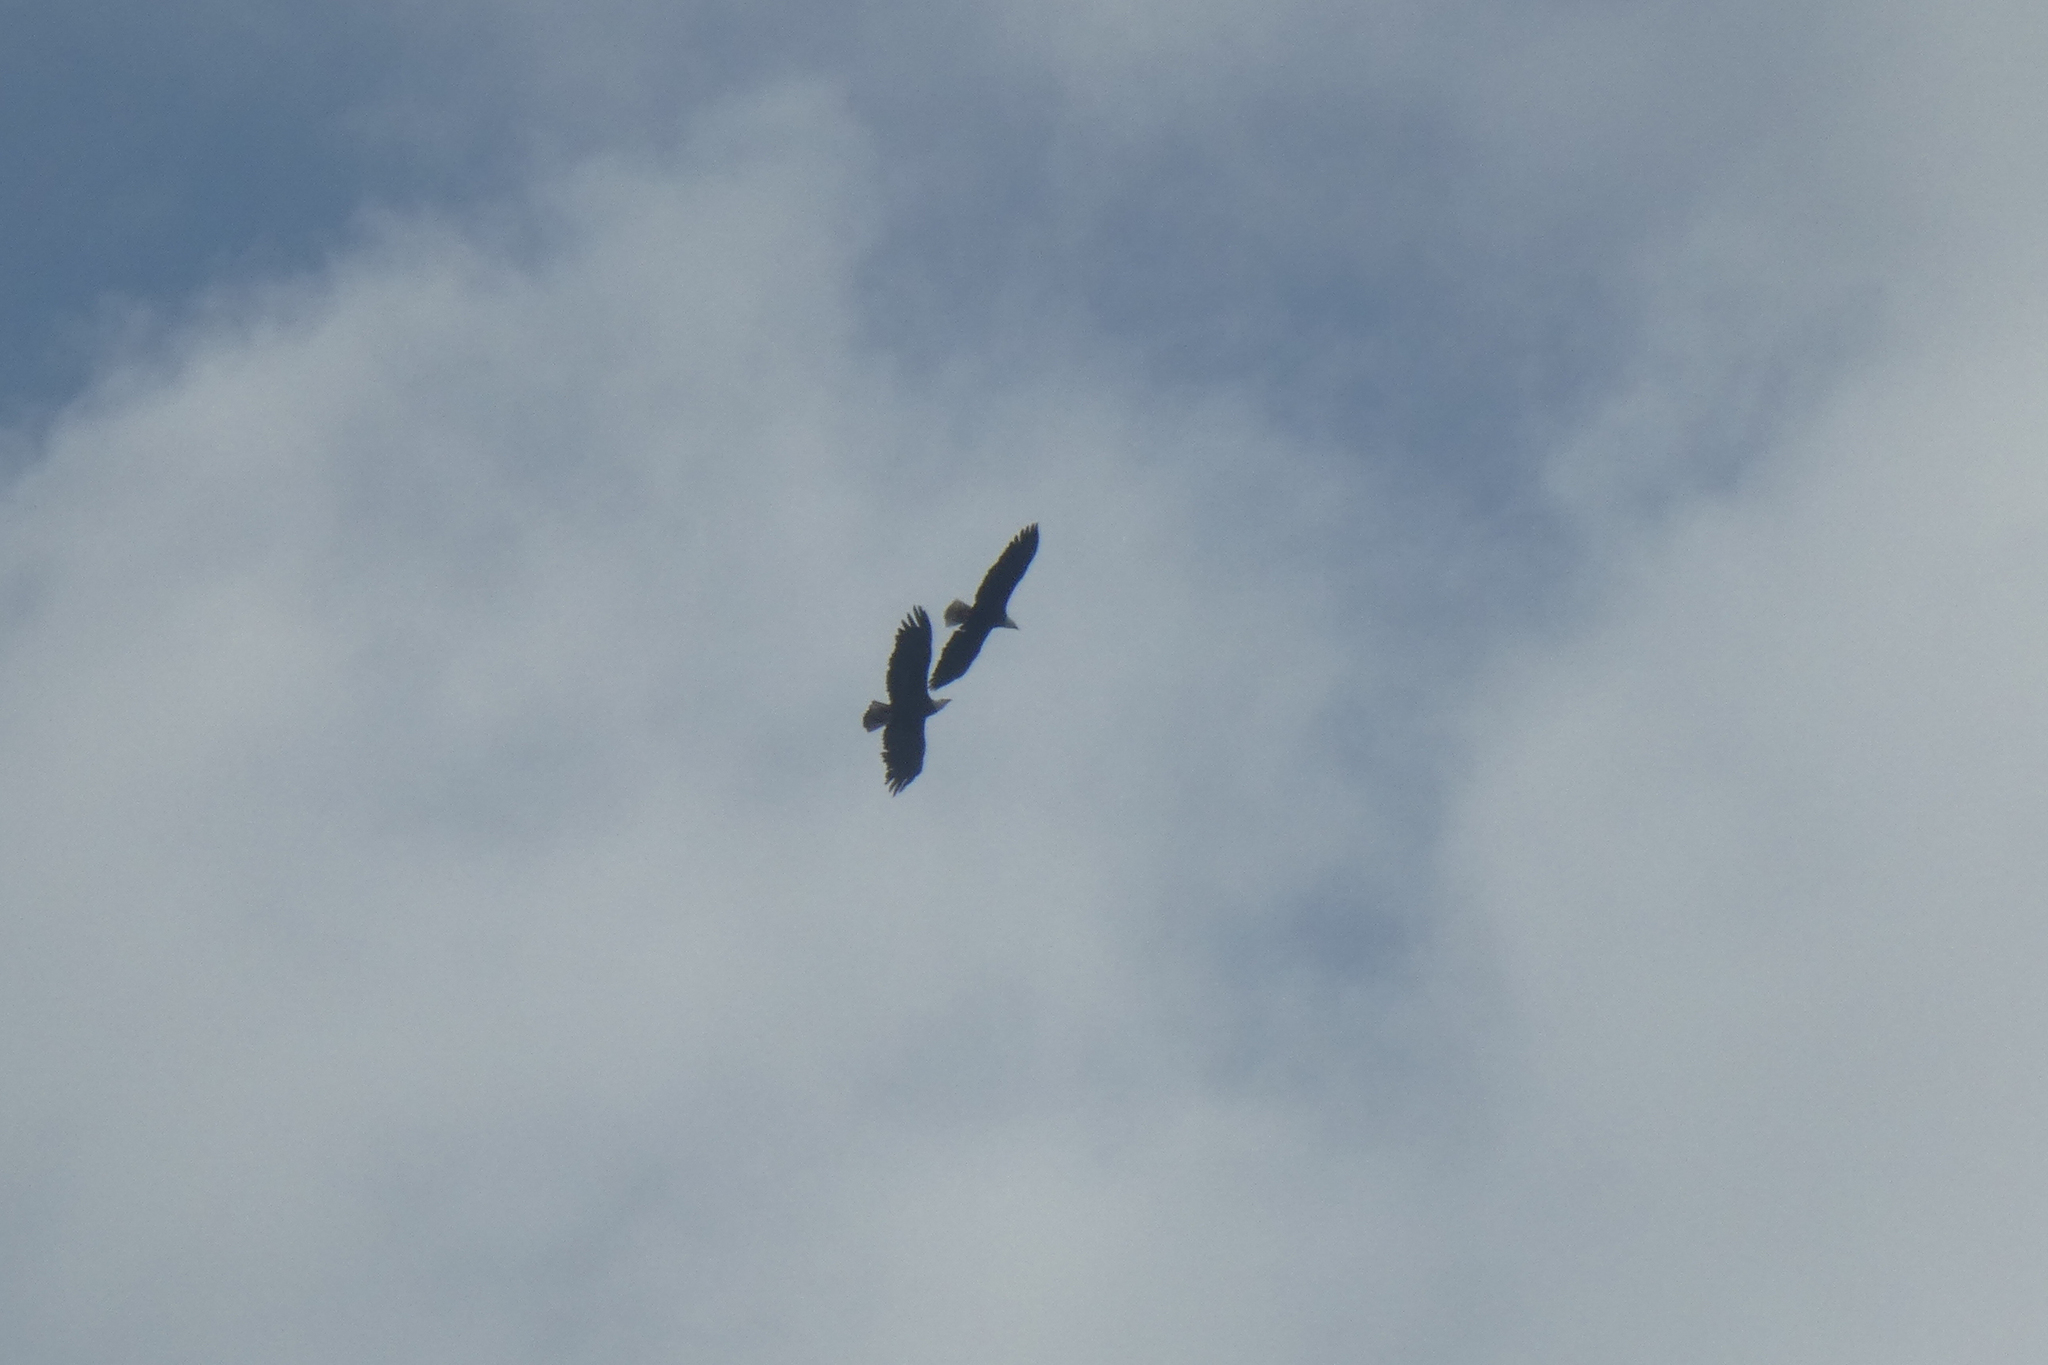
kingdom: Animalia
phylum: Chordata
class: Aves
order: Accipitriformes
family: Accipitridae
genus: Haliaeetus
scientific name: Haliaeetus leucocephalus
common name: Bald eagle
